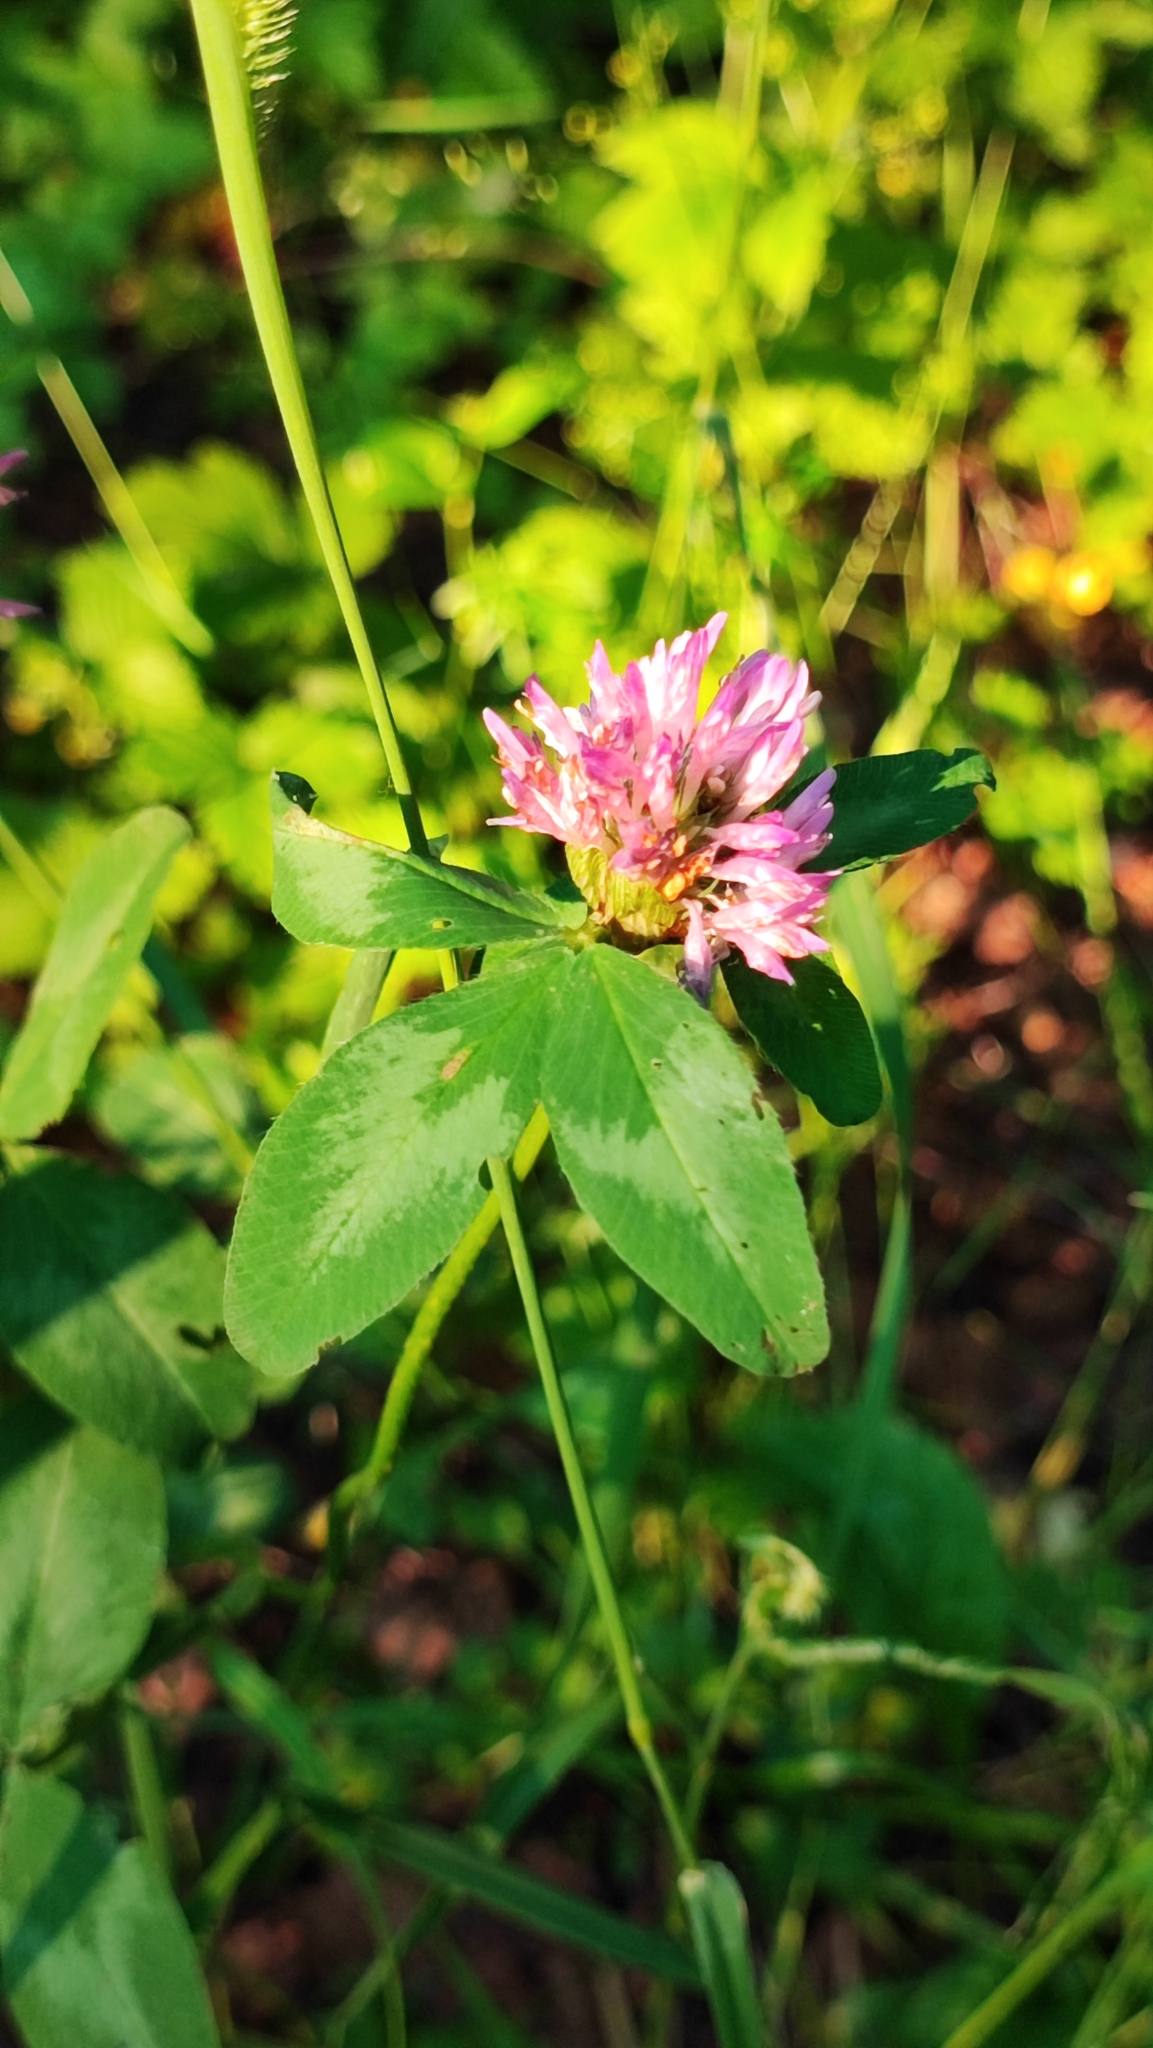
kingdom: Plantae
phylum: Tracheophyta
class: Magnoliopsida
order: Fabales
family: Fabaceae
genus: Trifolium
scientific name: Trifolium pratense
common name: Red clover
